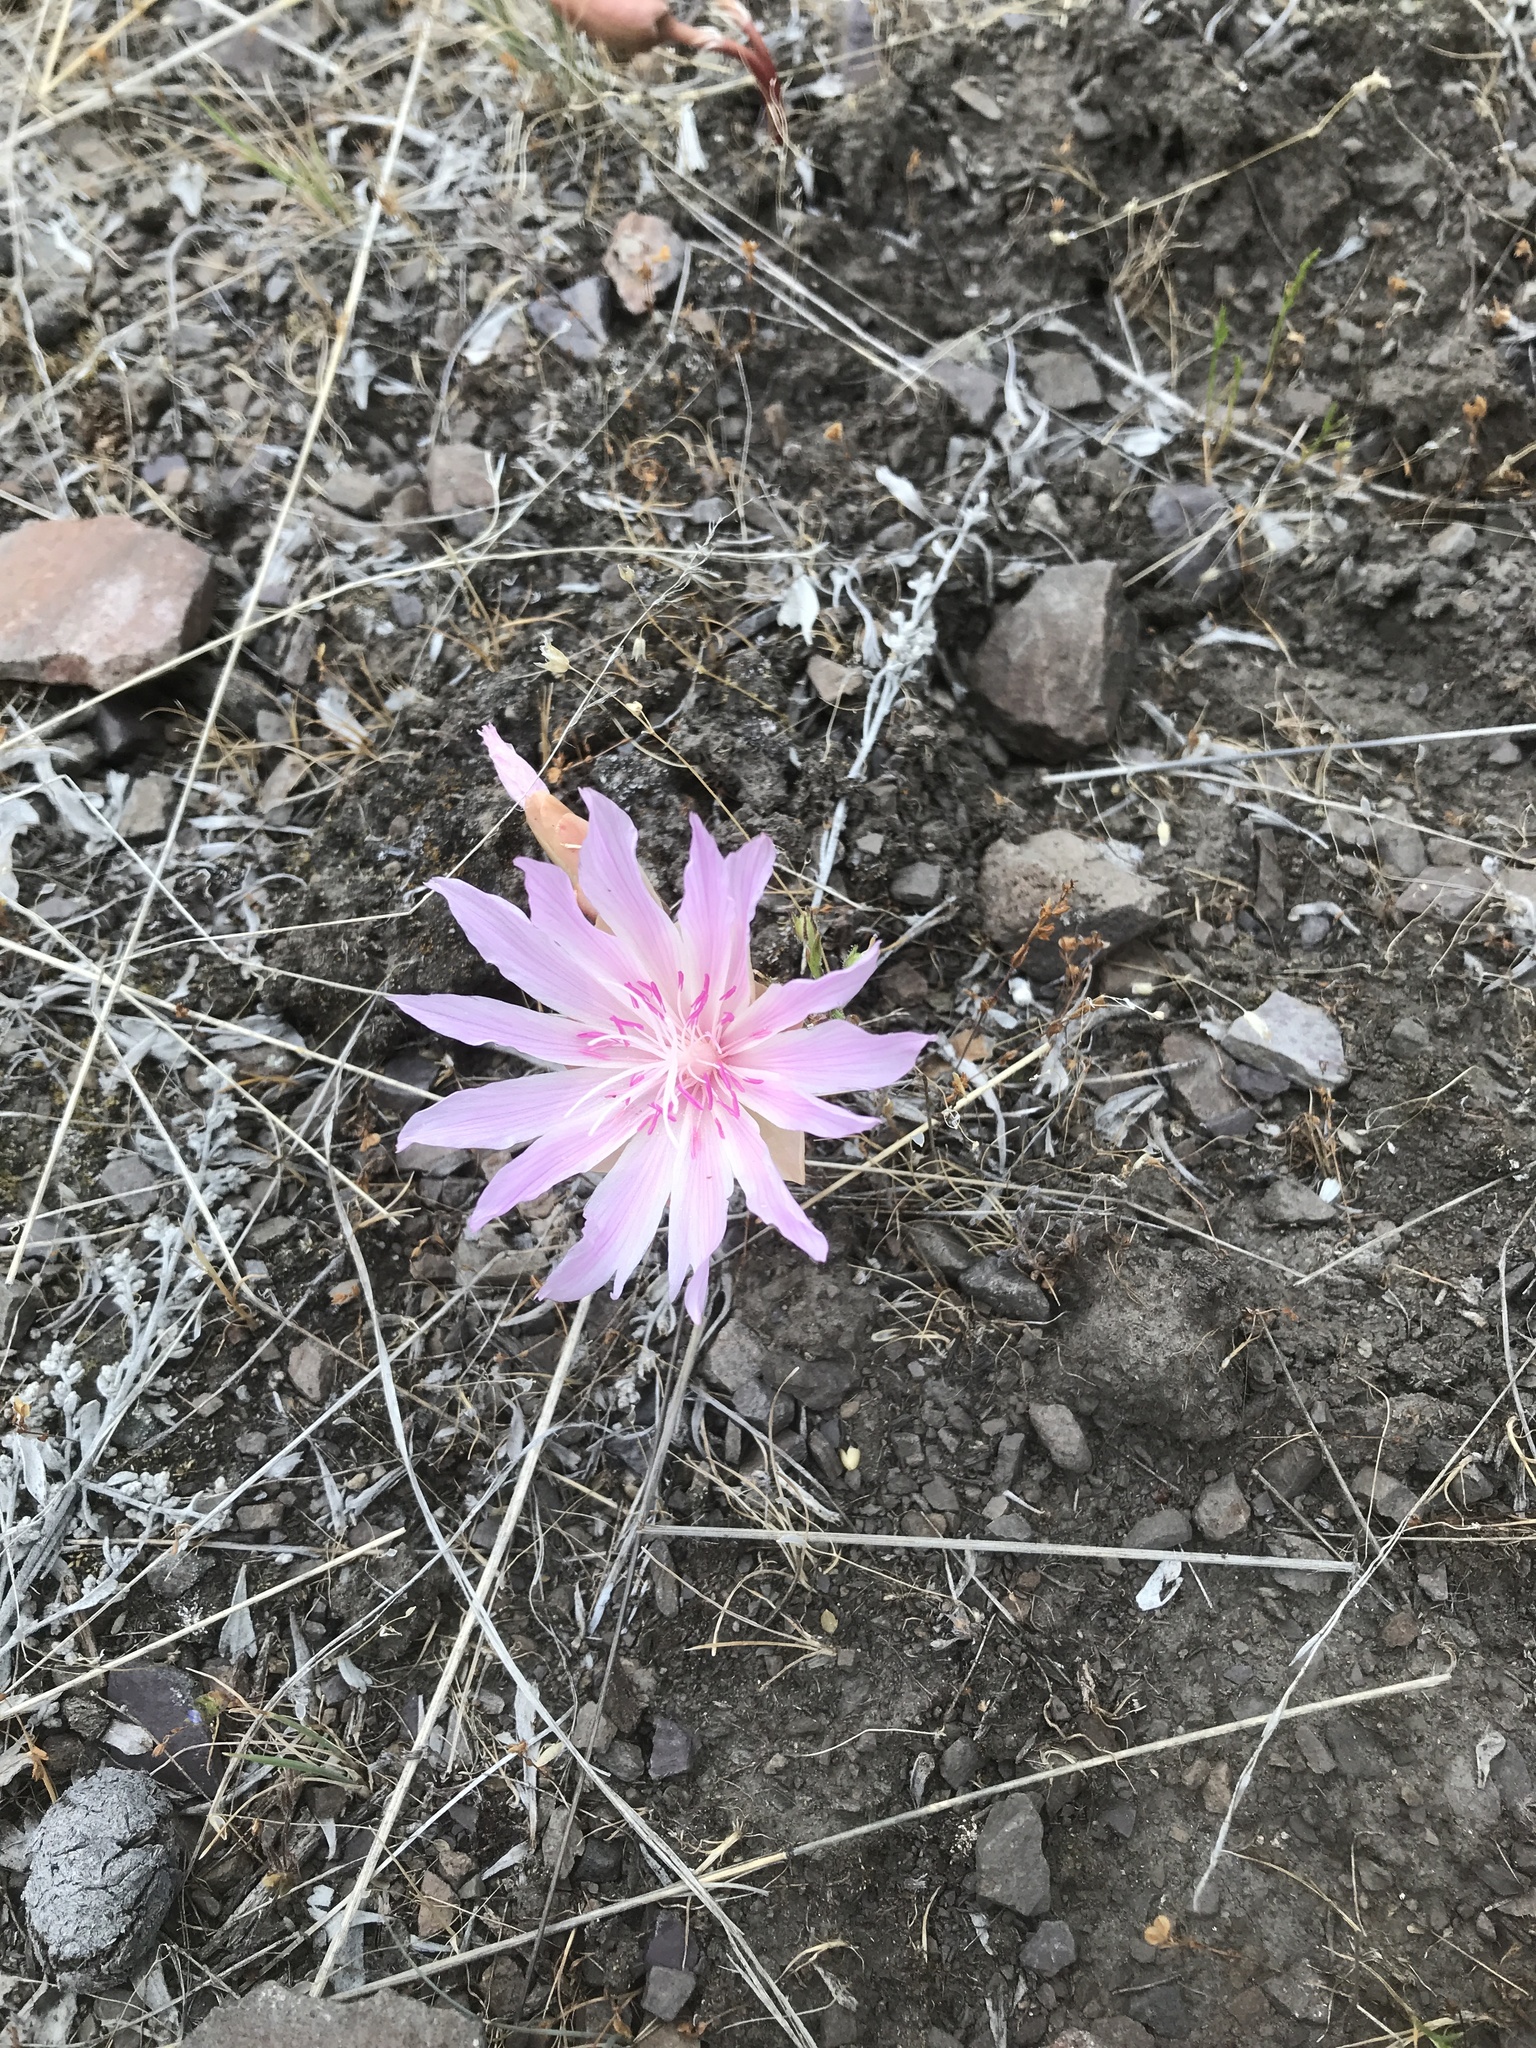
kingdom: Plantae
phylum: Tracheophyta
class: Magnoliopsida
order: Caryophyllales
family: Montiaceae
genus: Lewisia
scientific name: Lewisia rediviva
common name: Bitter-root
